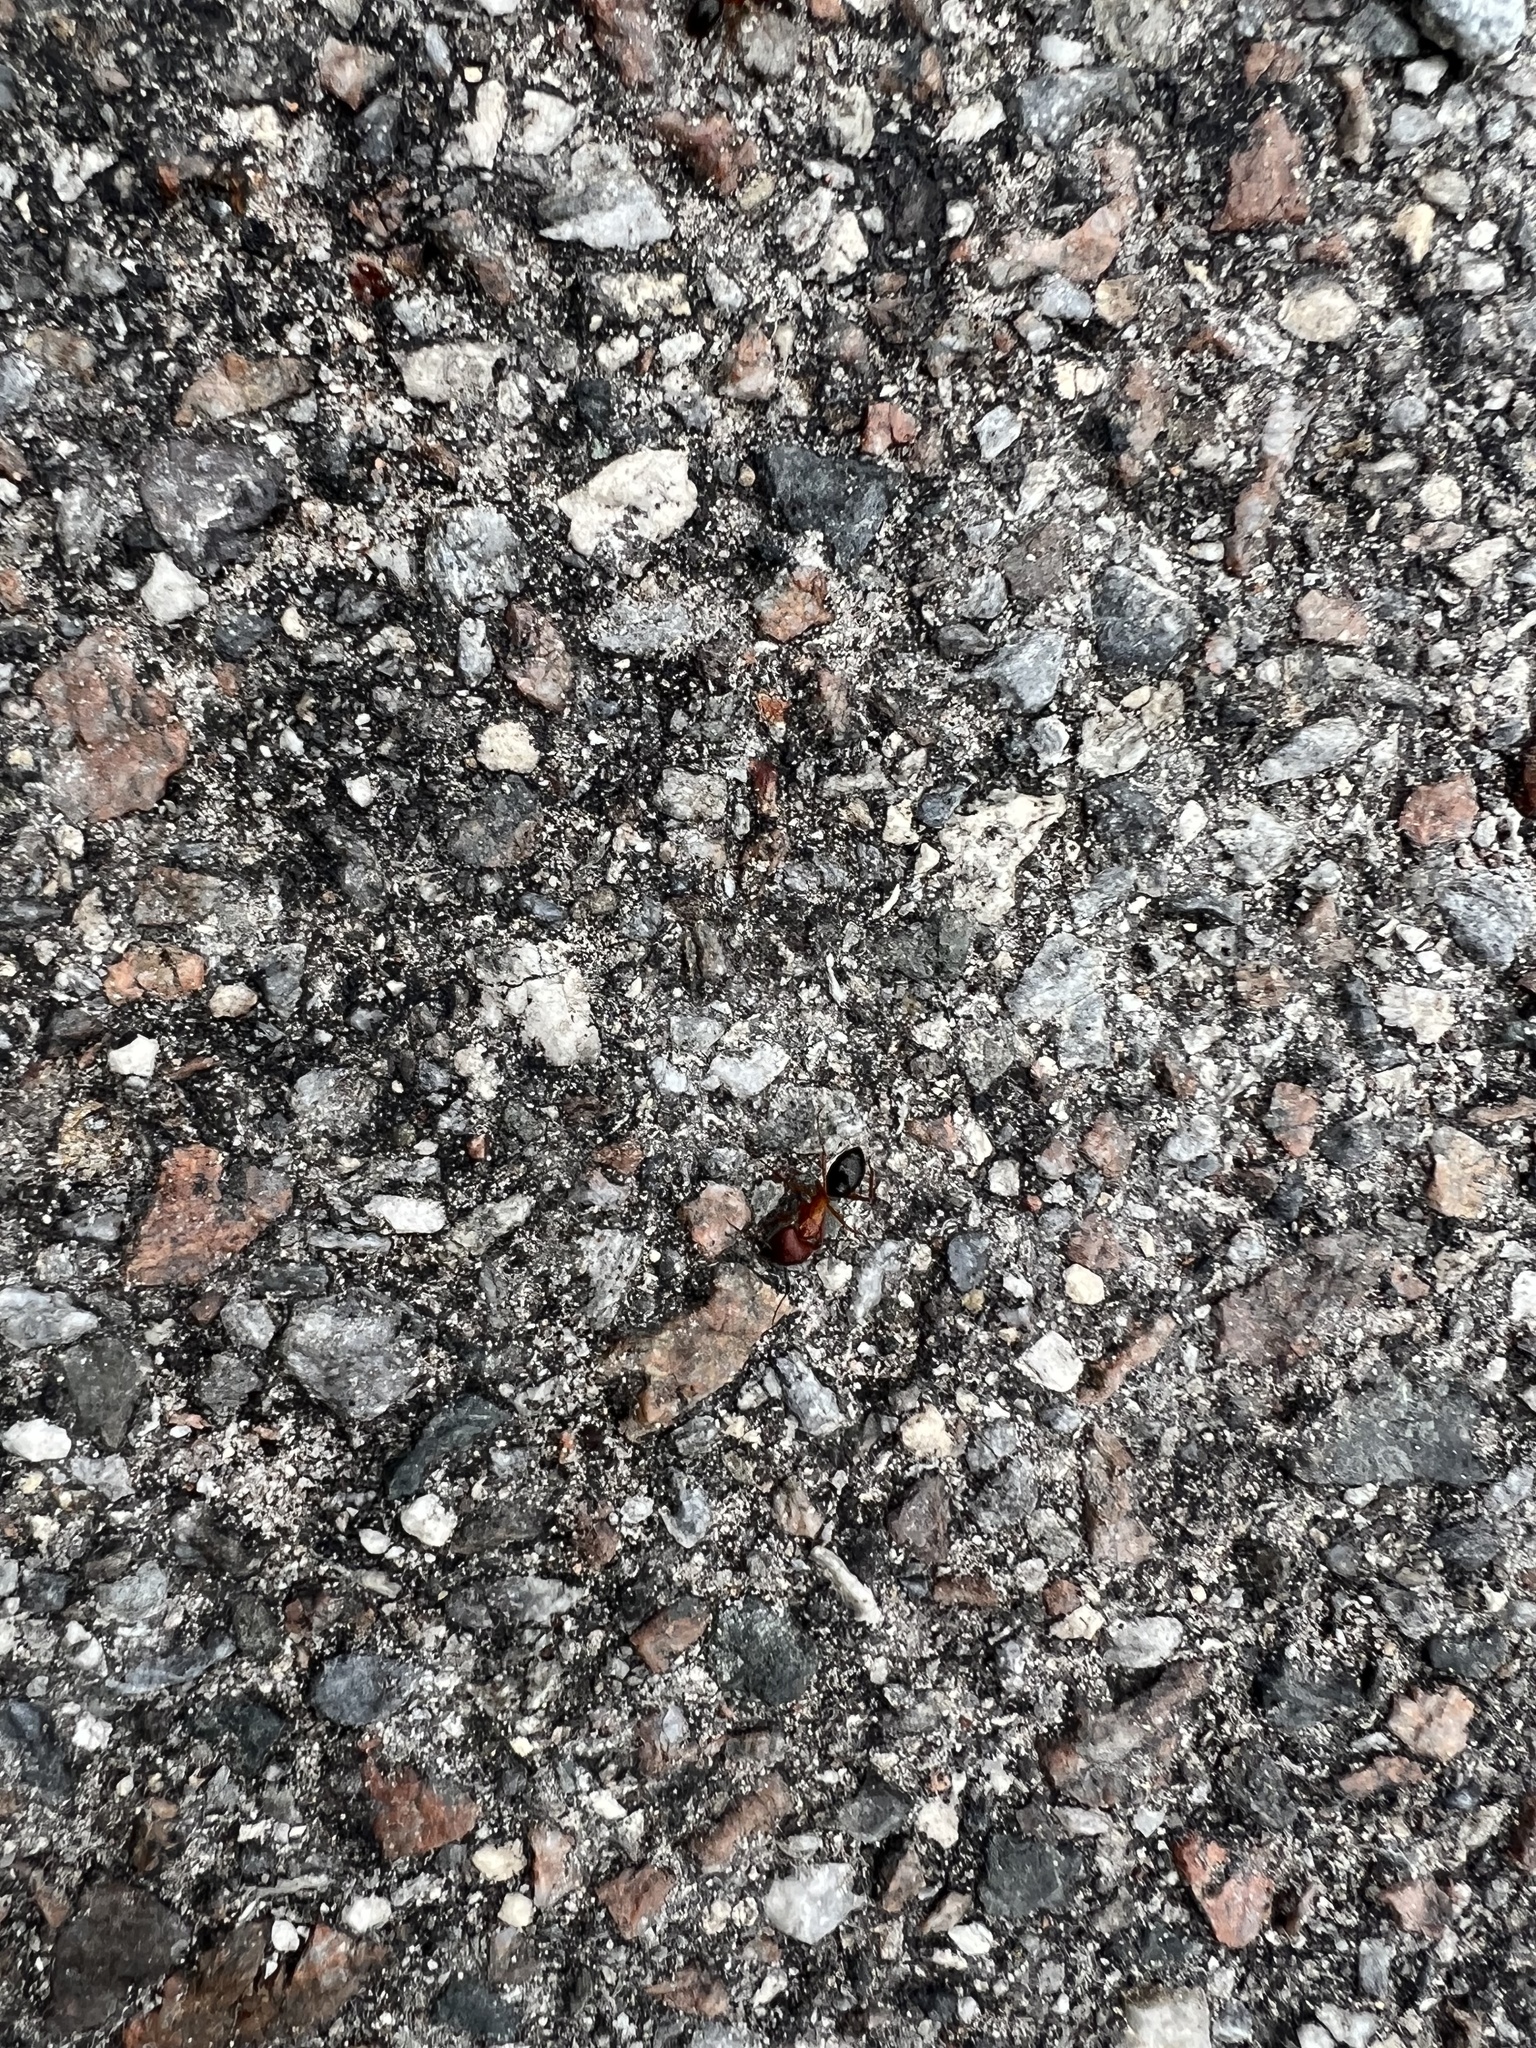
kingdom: Animalia
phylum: Arthropoda
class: Insecta
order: Hymenoptera
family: Formicidae
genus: Camponotus
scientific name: Camponotus floridanus
